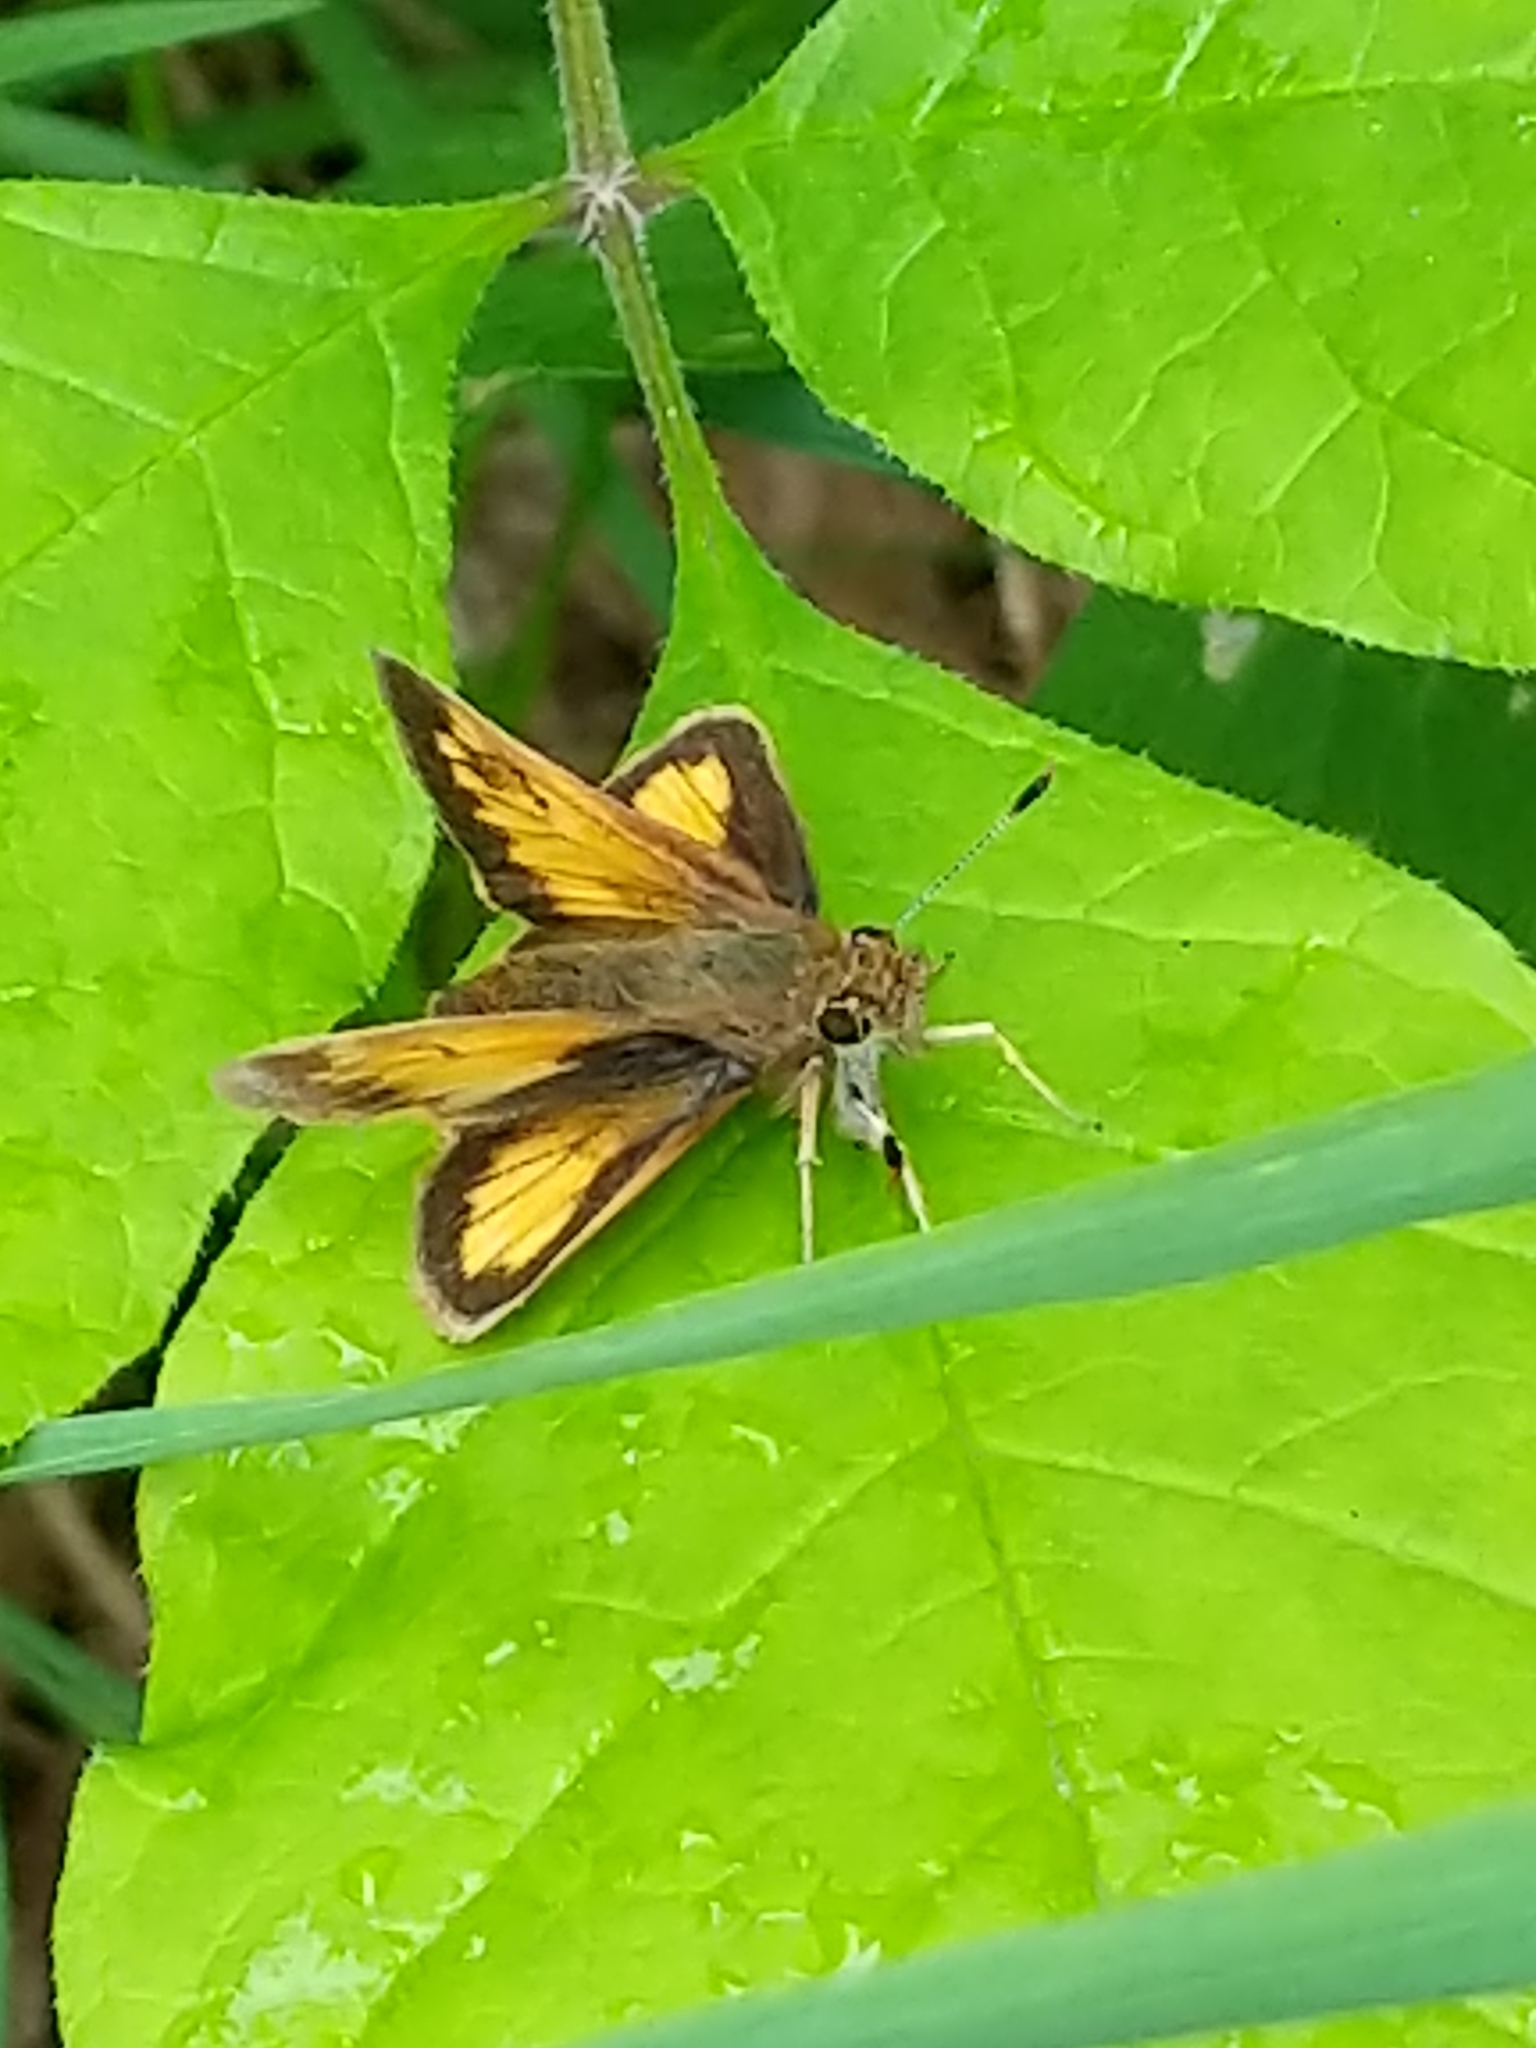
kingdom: Animalia
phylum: Arthropoda
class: Insecta
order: Lepidoptera
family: Hesperiidae
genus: Lon
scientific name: Lon hobomok
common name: Hobomok skipper
